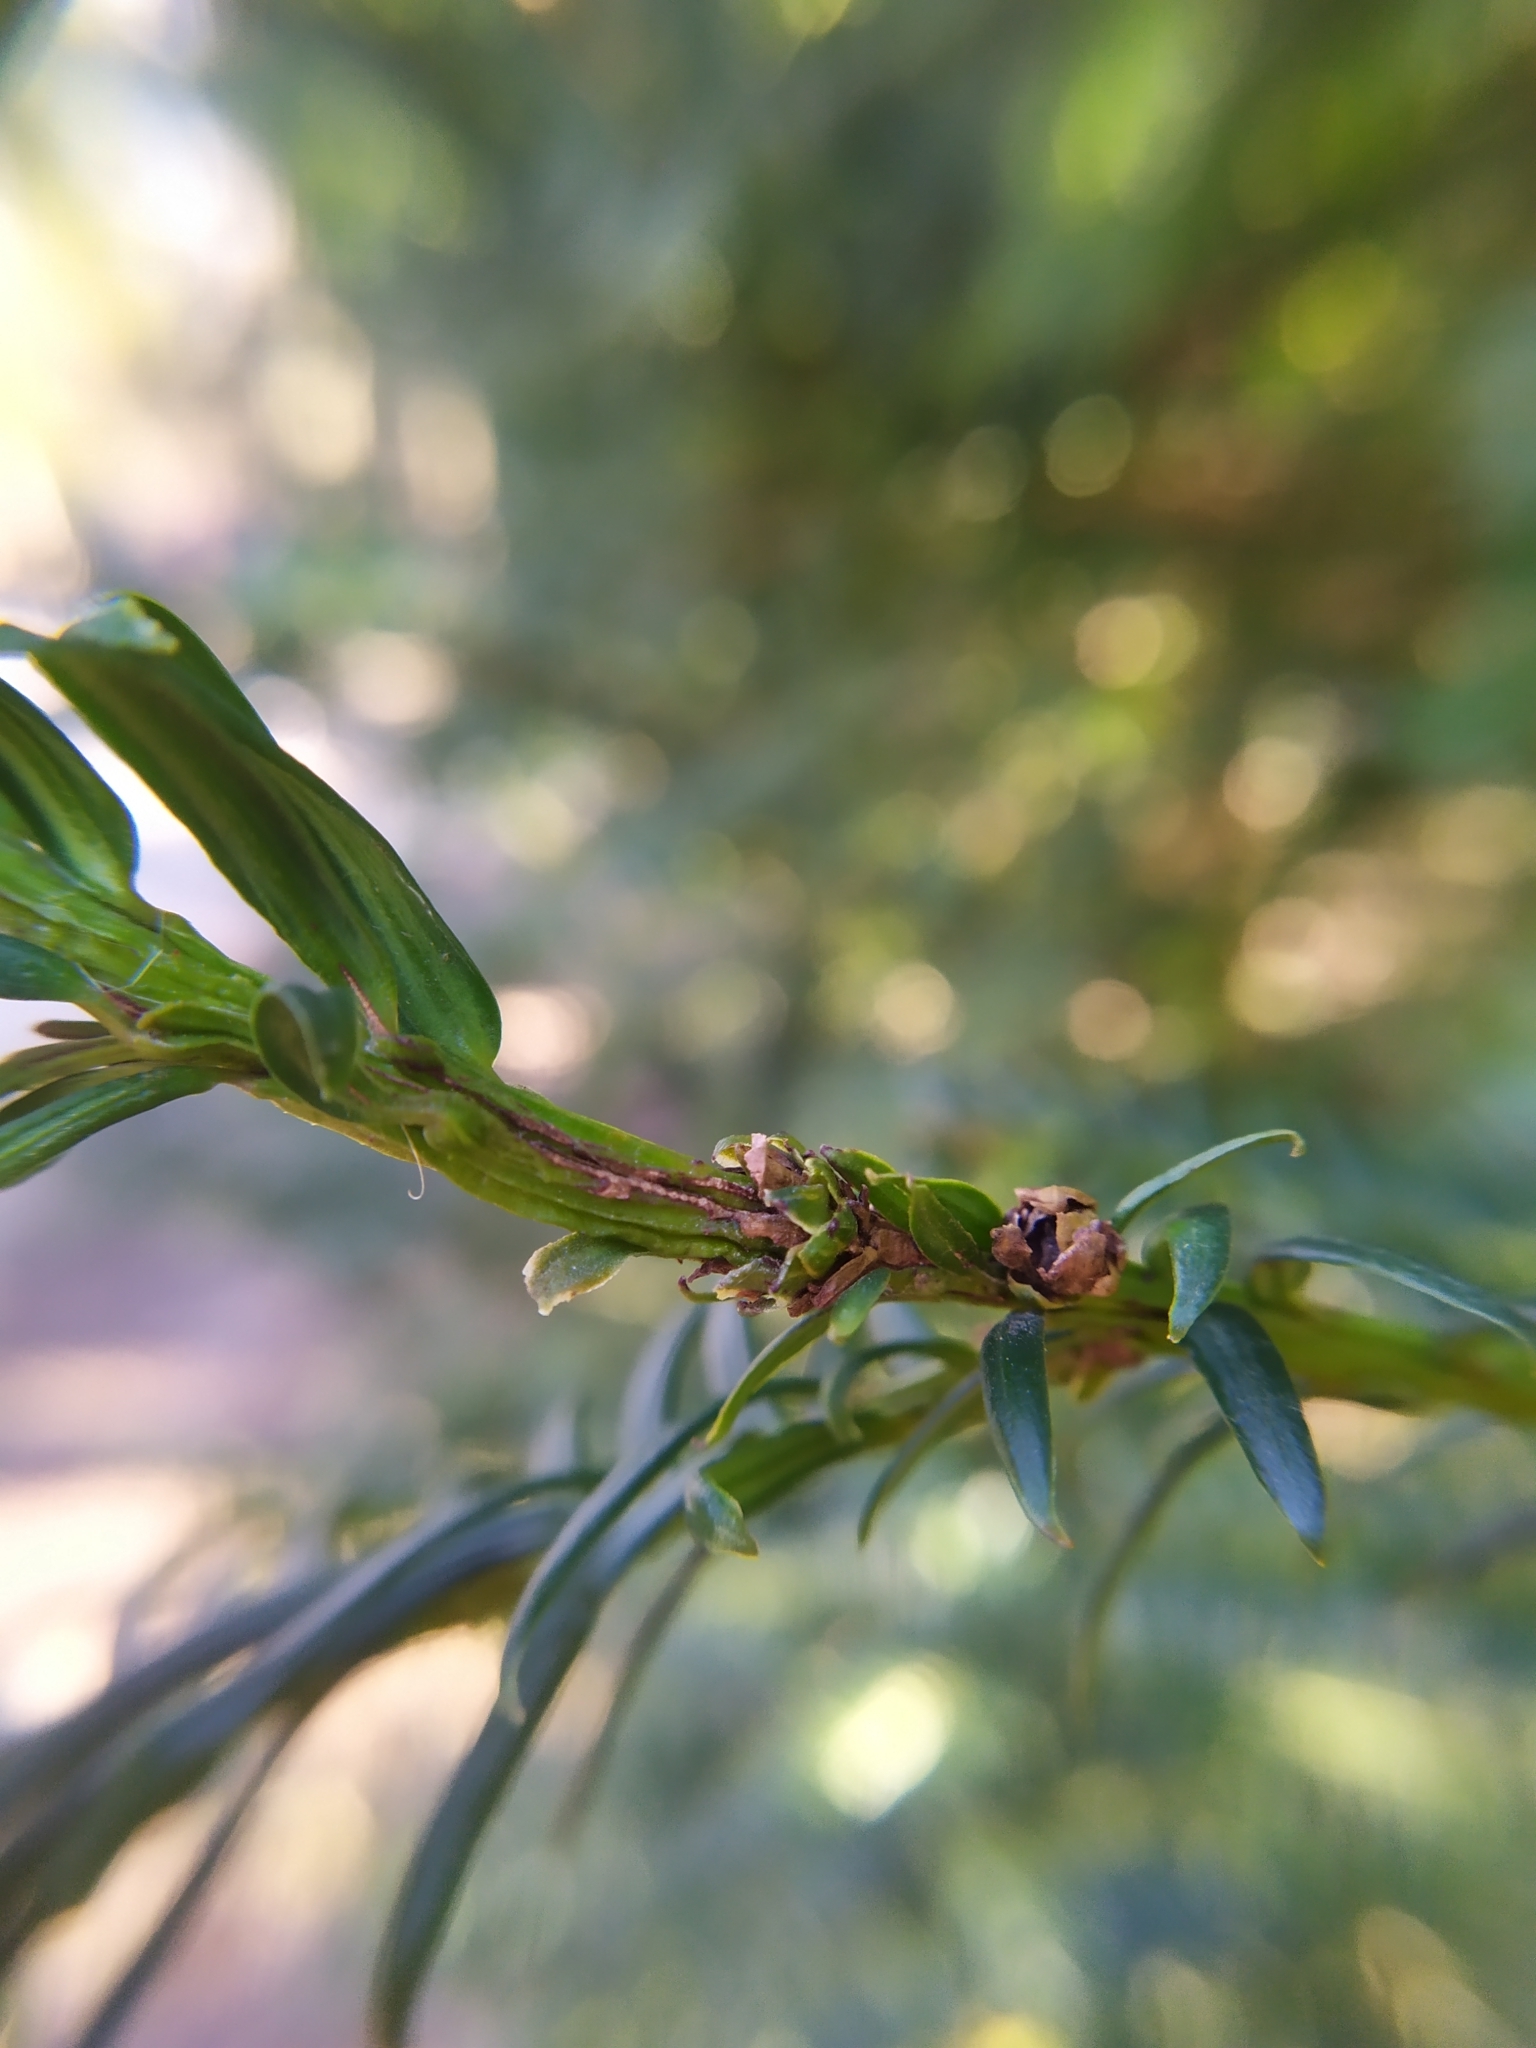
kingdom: Animalia
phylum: Arthropoda
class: Arachnida
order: Trombidiformes
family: Eriophyidae
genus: Cecidophyopsis
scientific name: Cecidophyopsis psilaspis
